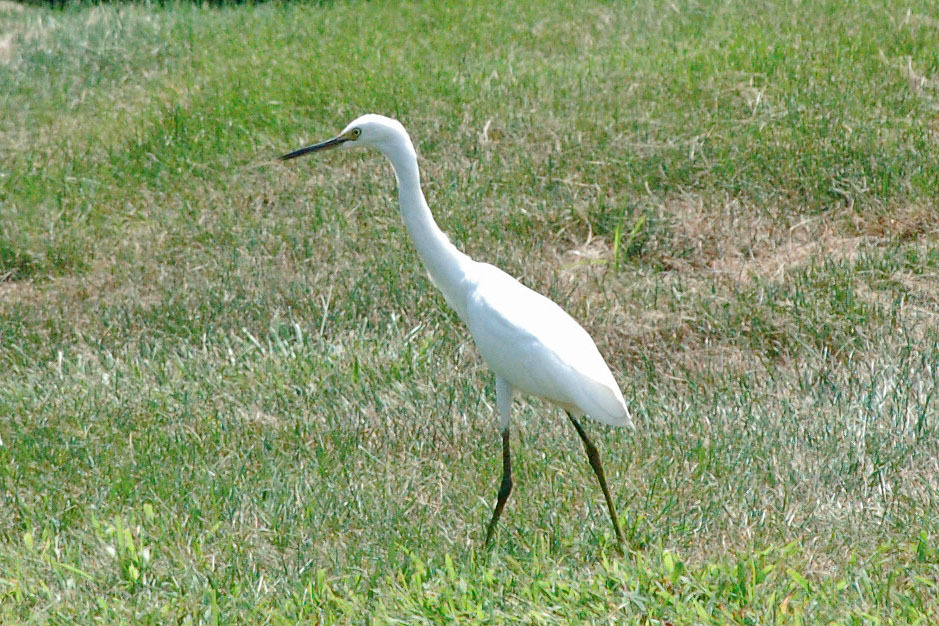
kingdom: Animalia
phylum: Chordata
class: Aves
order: Pelecaniformes
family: Ardeidae
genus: Egretta
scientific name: Egretta thula
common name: Snowy egret
